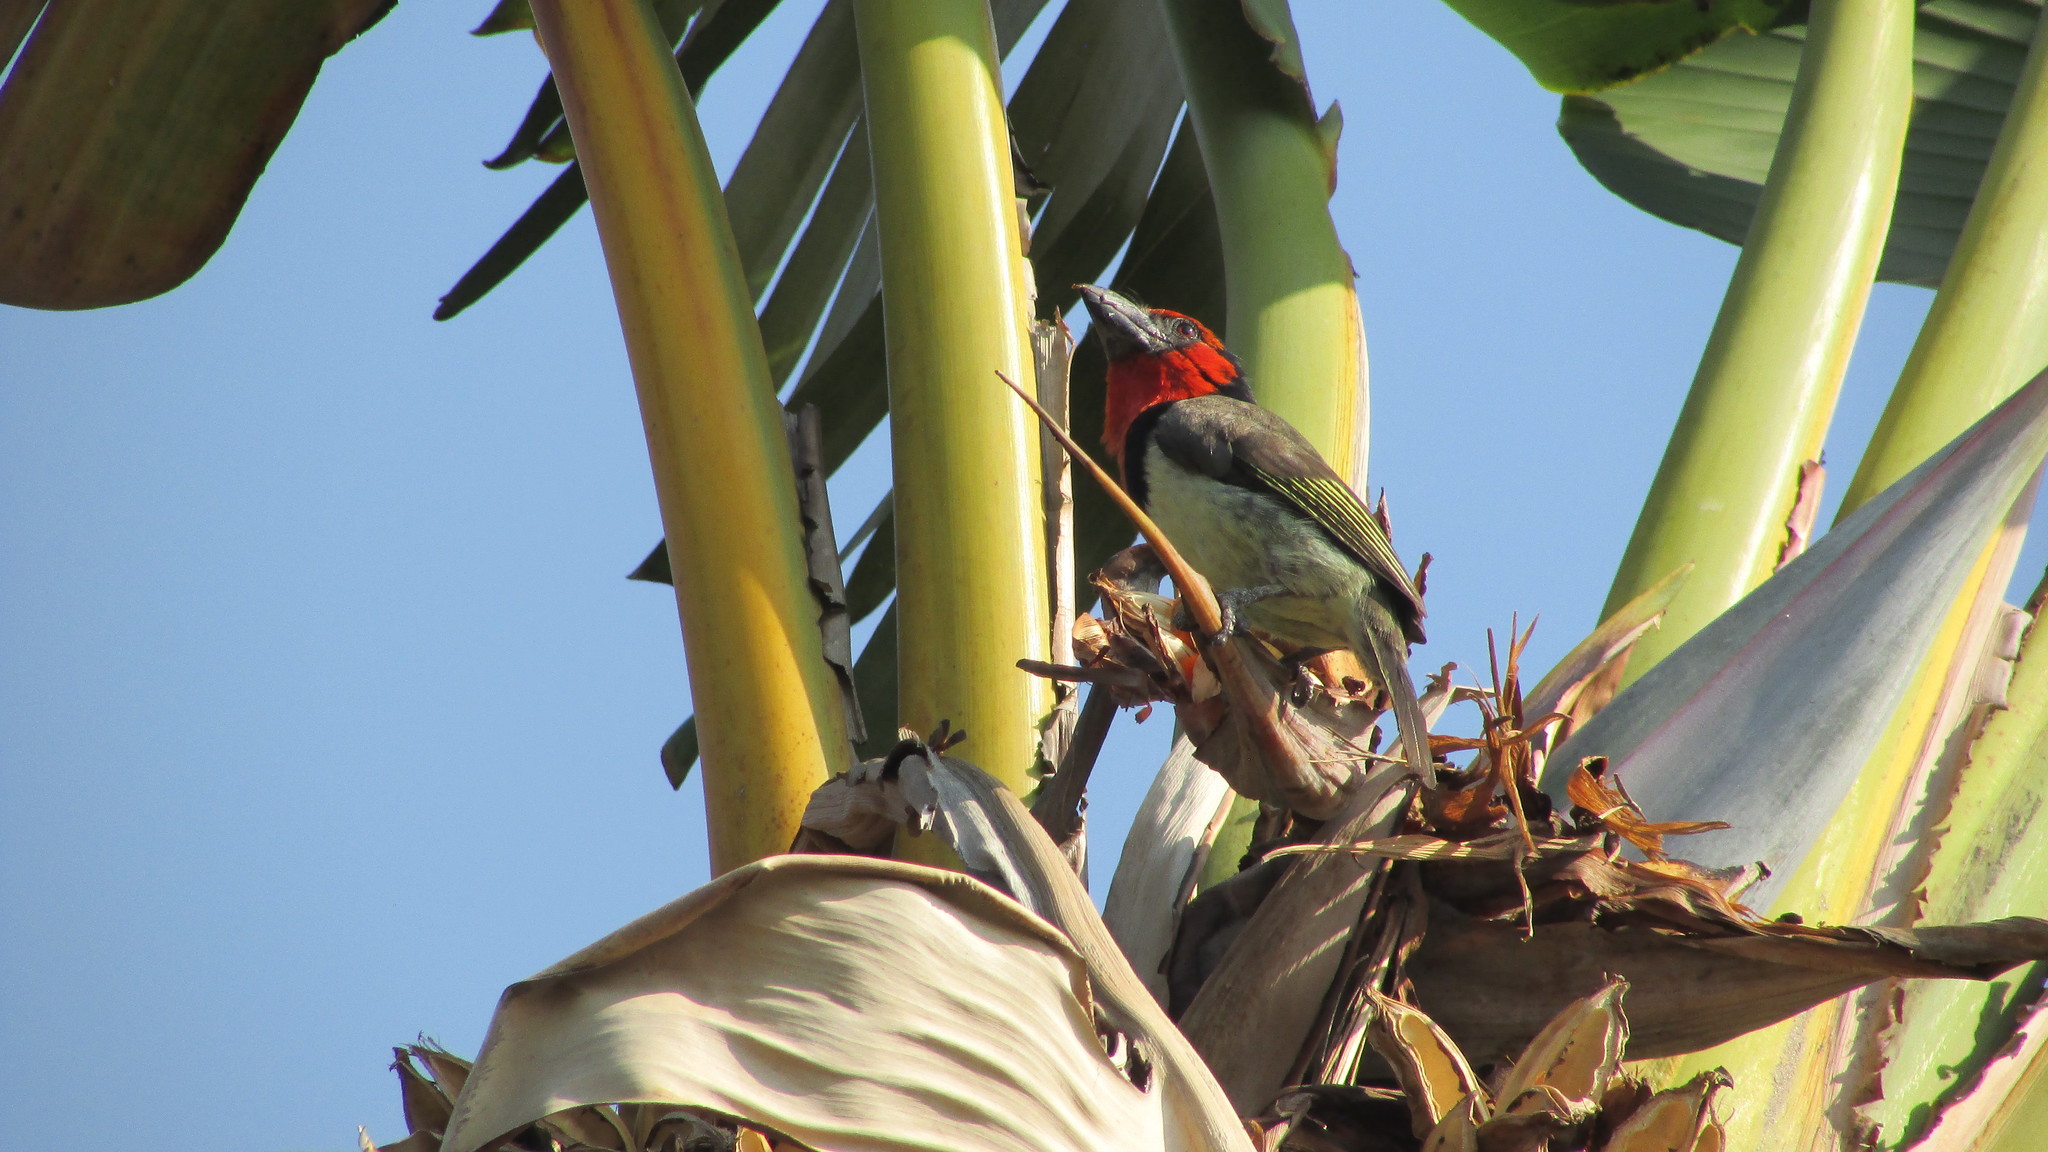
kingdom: Animalia
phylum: Chordata
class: Aves
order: Piciformes
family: Lybiidae
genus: Lybius
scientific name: Lybius torquatus
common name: Black-collared barbet
